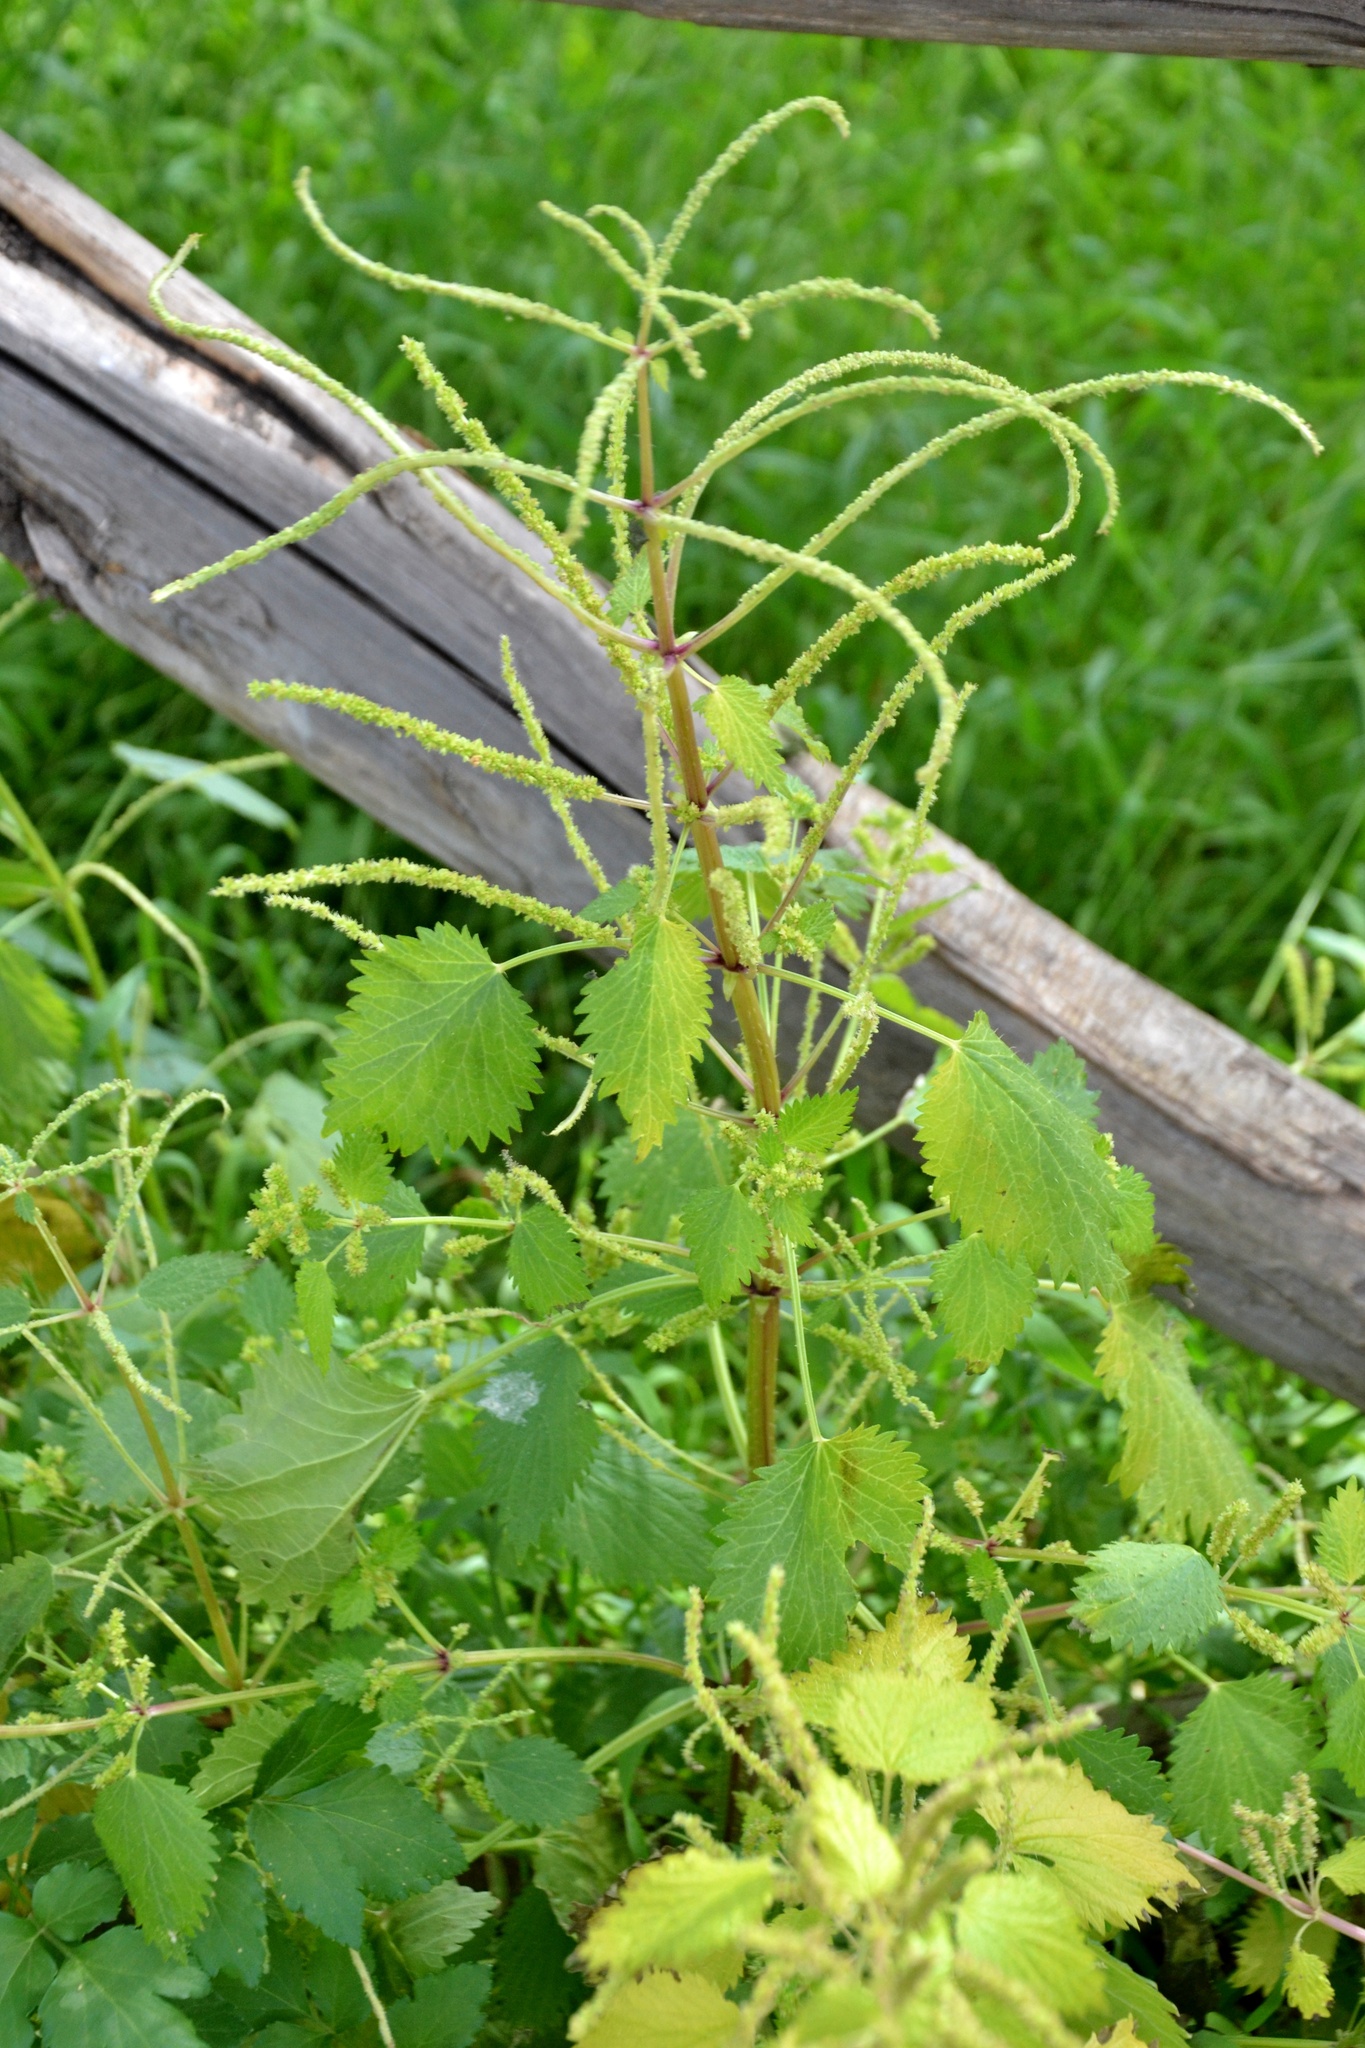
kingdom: Plantae
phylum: Tracheophyta
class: Magnoliopsida
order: Rosales
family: Urticaceae
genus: Urtica
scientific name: Urtica membranacea
